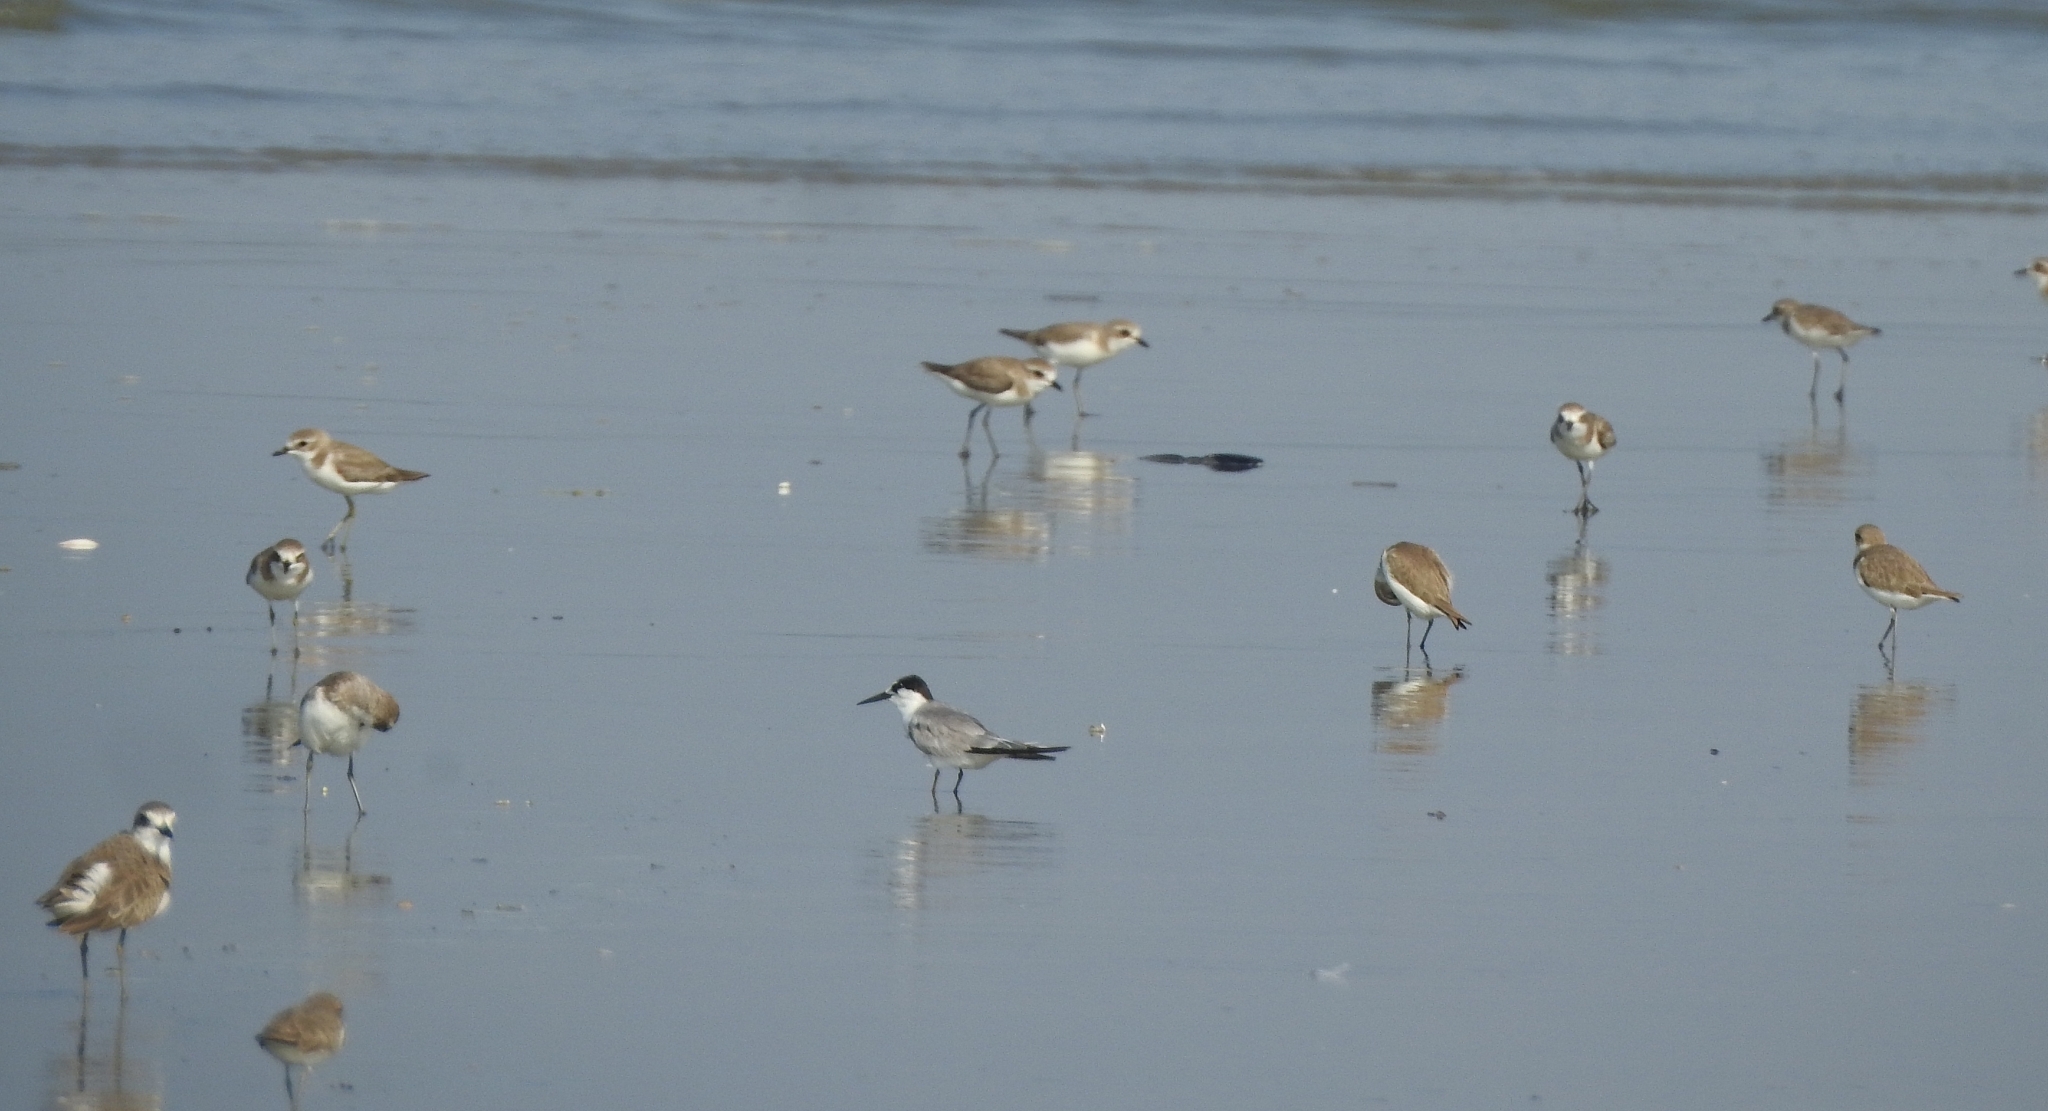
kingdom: Animalia
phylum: Chordata
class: Aves
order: Charadriiformes
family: Charadriidae
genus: Anarhynchus
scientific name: Anarhynchus
